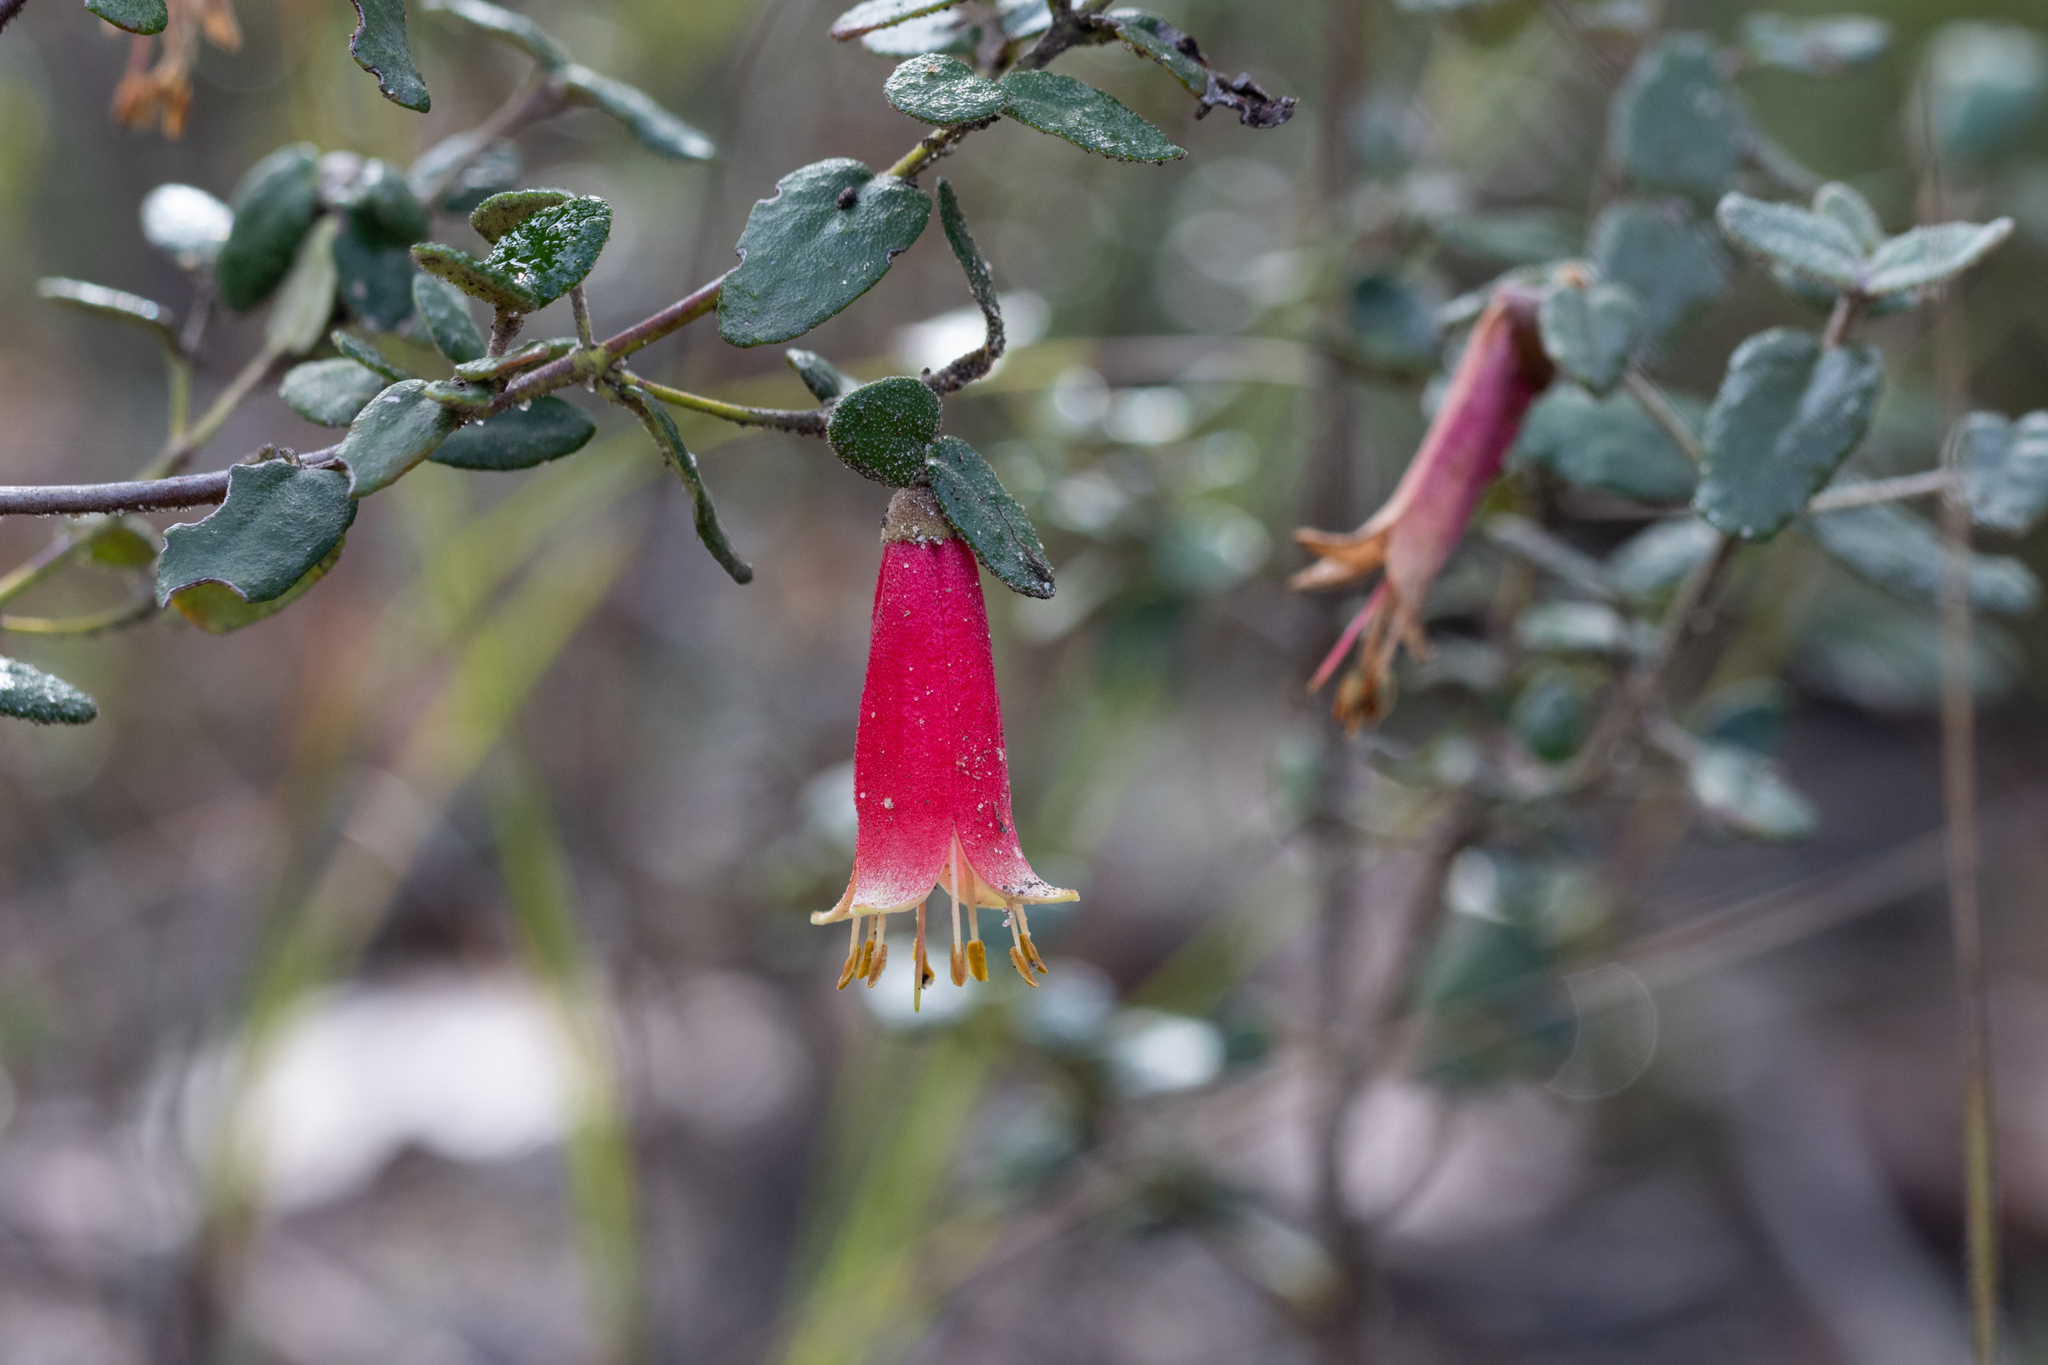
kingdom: Plantae
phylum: Tracheophyta
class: Magnoliopsida
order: Sapindales
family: Rutaceae
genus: Correa
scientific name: Correa reflexa
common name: Common correa
